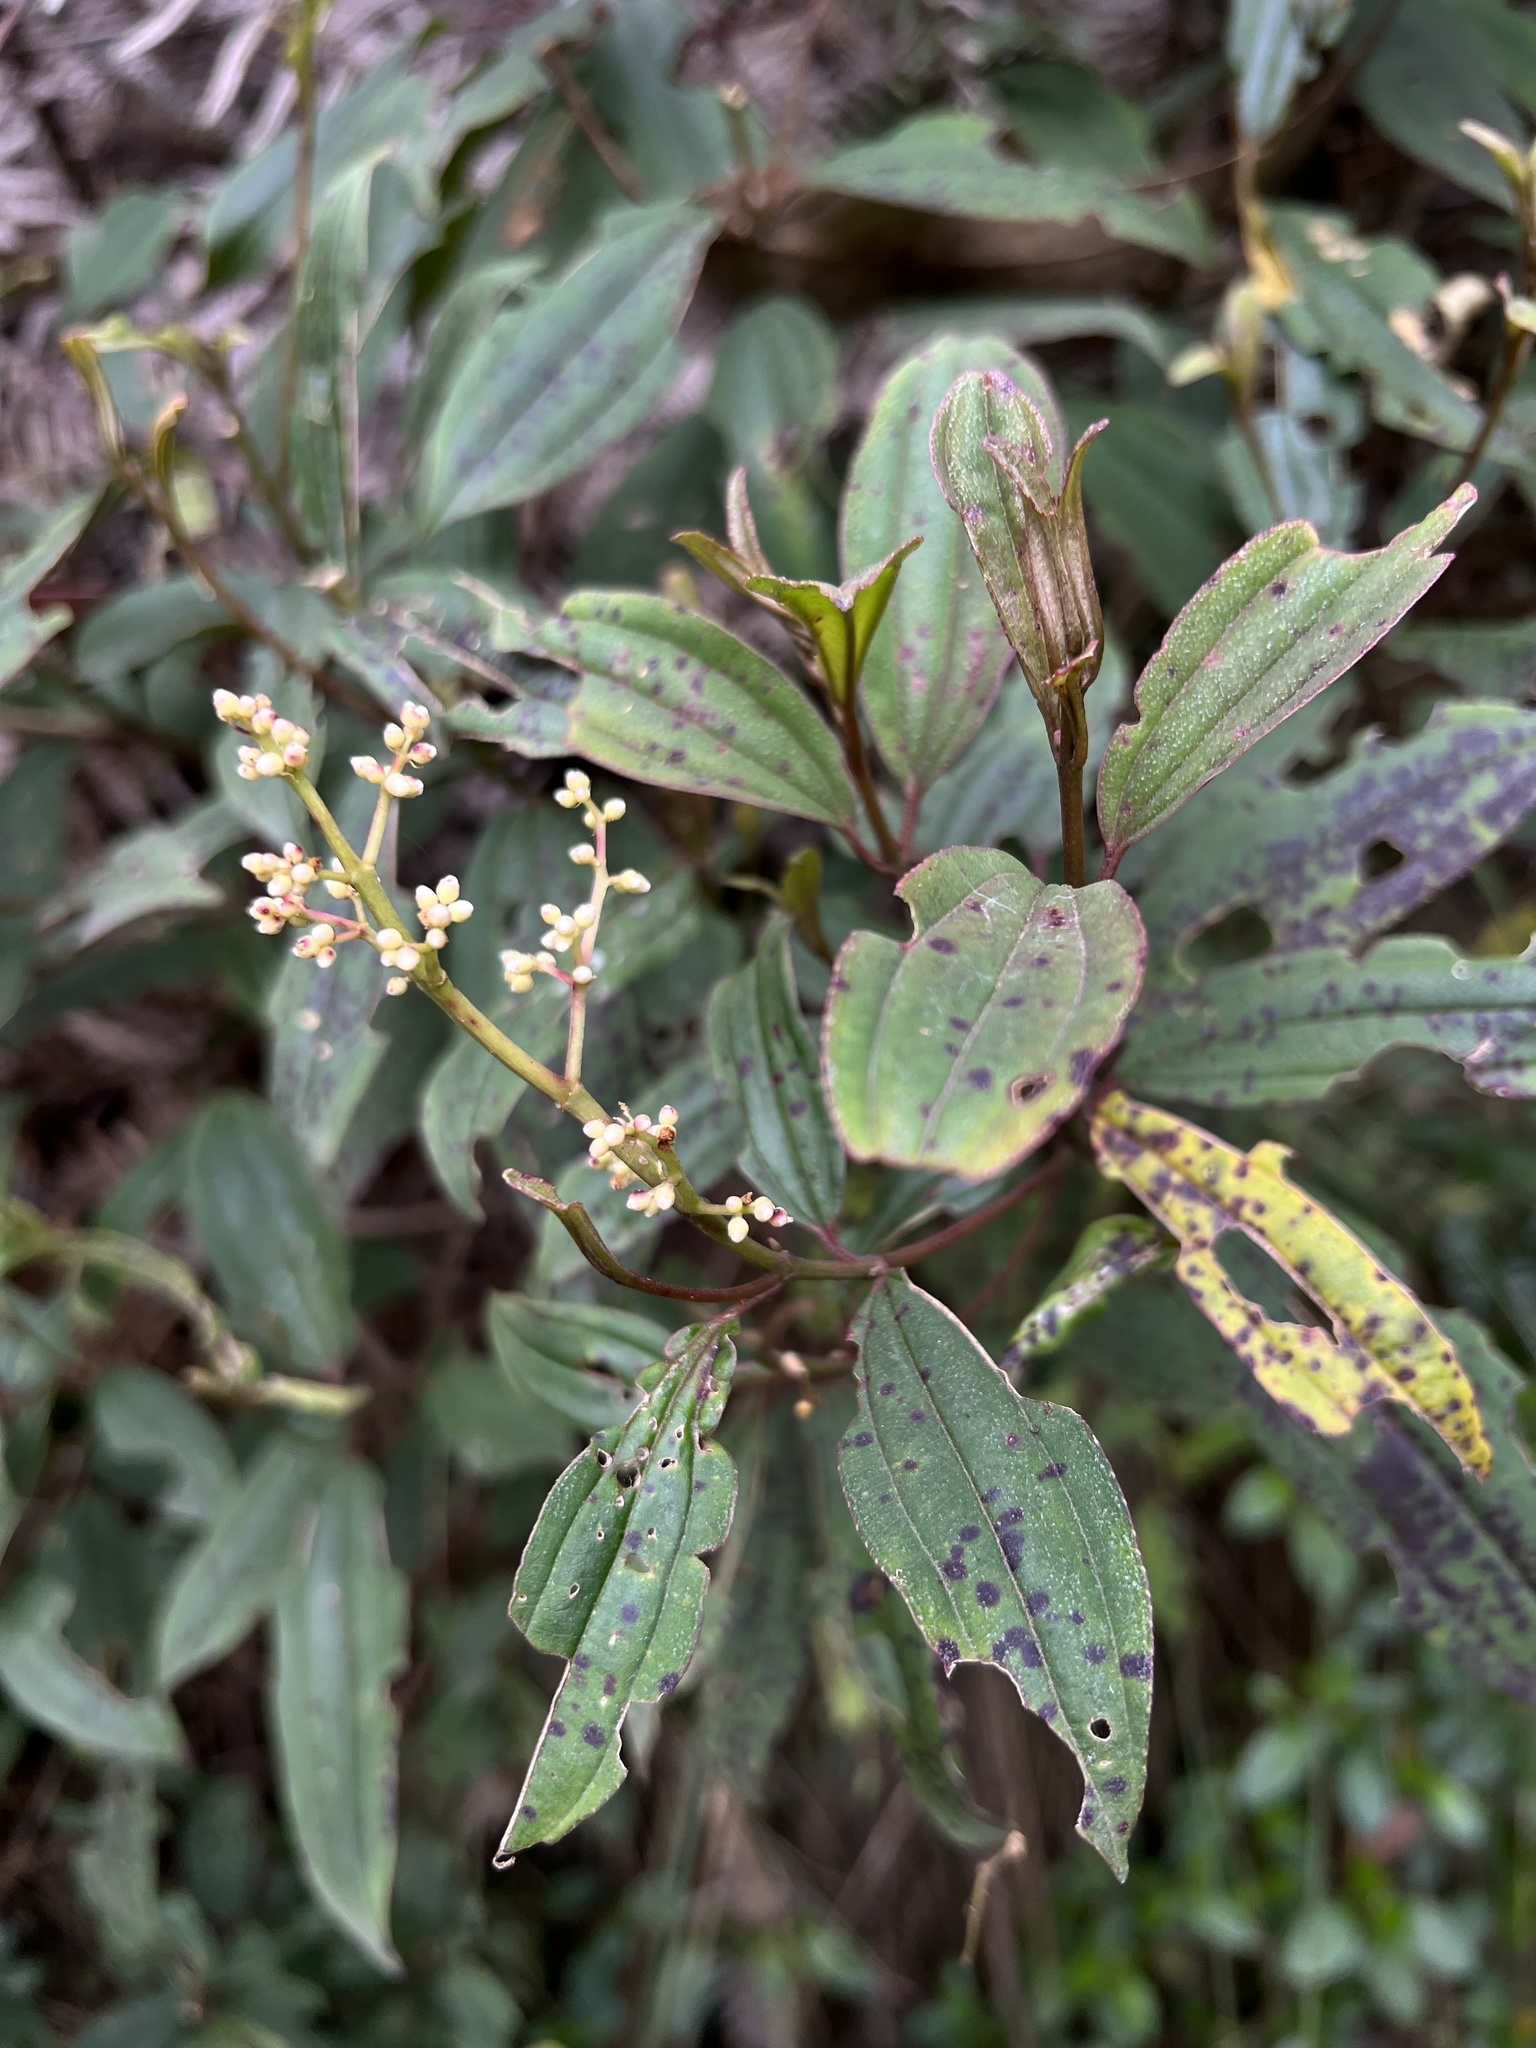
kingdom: Plantae
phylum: Tracheophyta
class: Magnoliopsida
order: Myrtales
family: Melastomataceae
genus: Miconia
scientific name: Miconia theizans
